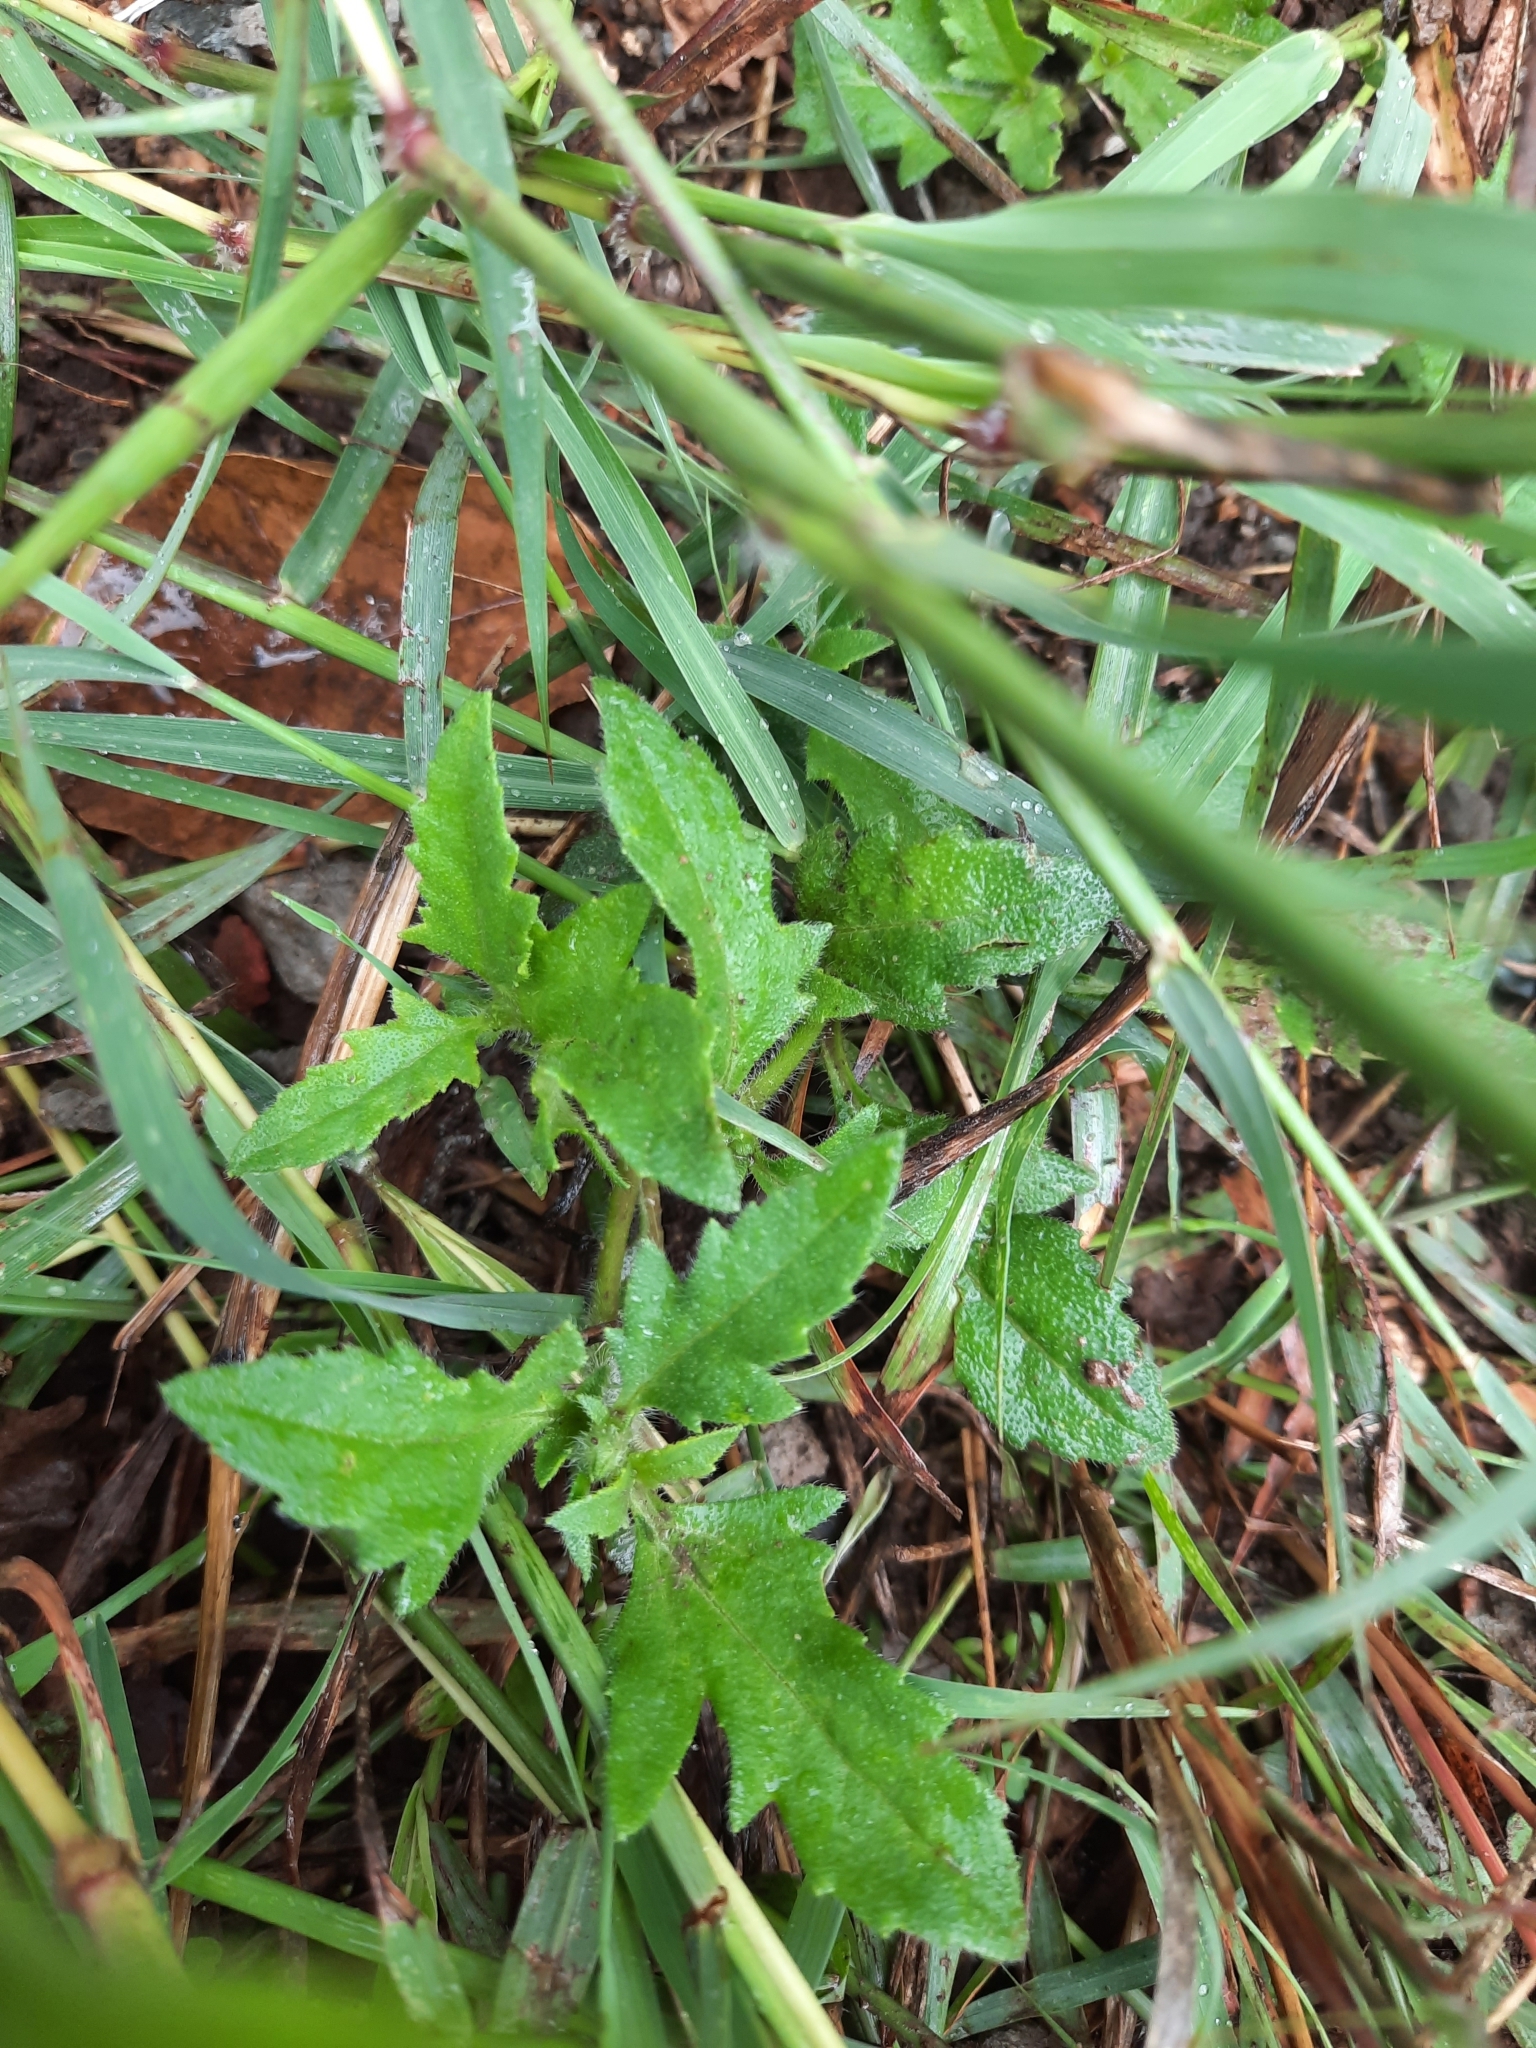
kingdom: Plantae
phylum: Tracheophyta
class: Magnoliopsida
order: Asterales
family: Asteraceae
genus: Tridax
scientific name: Tridax procumbens
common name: Coatbuttons
